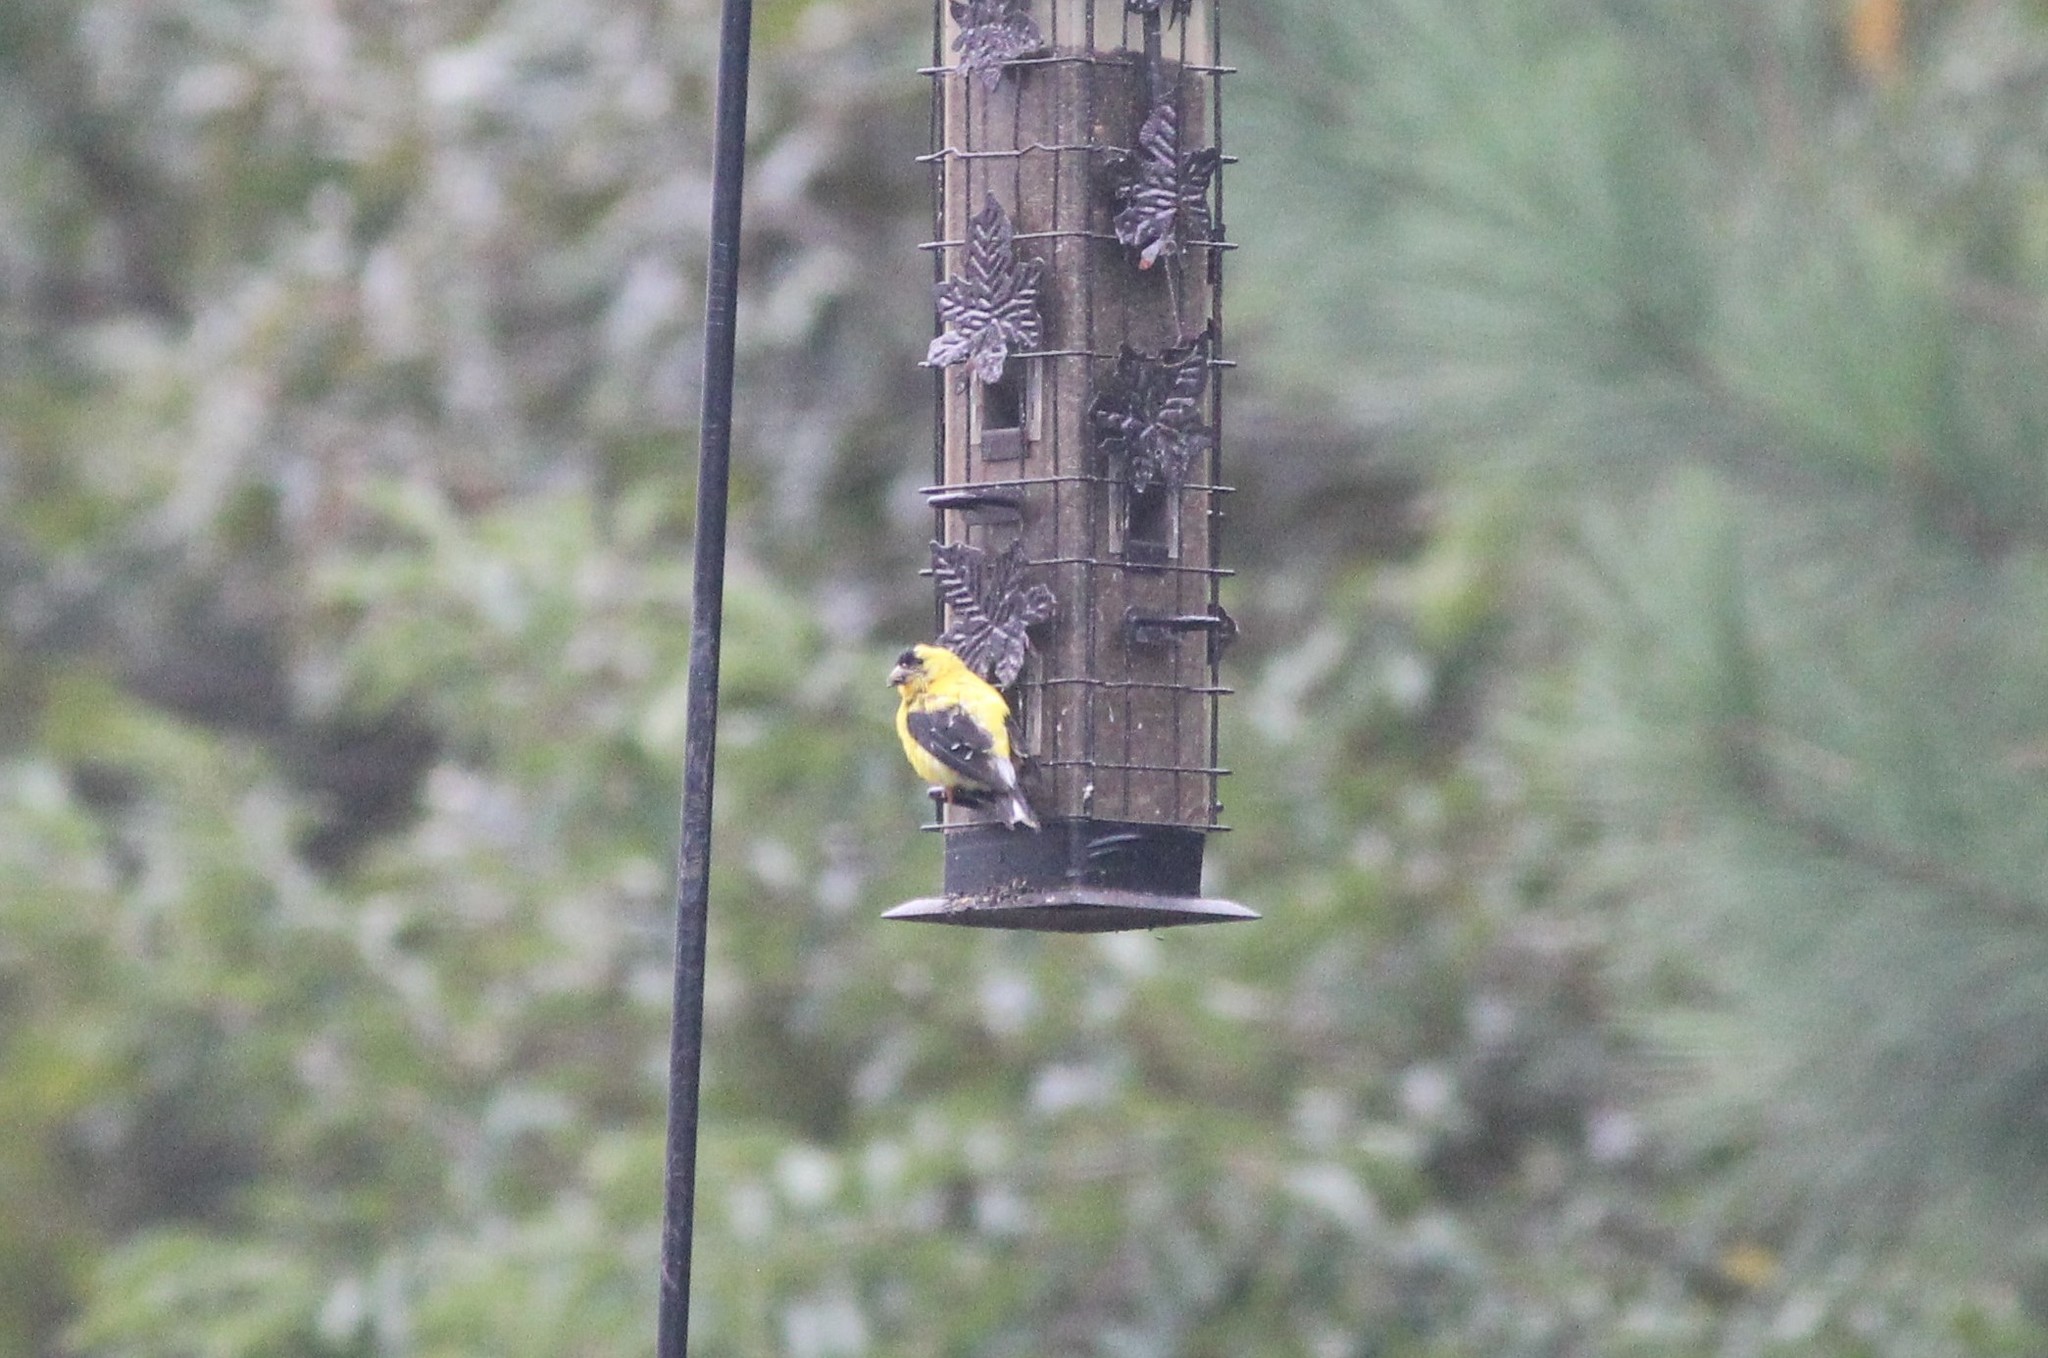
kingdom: Animalia
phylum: Chordata
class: Aves
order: Passeriformes
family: Fringillidae
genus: Spinus
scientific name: Spinus tristis
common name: American goldfinch
